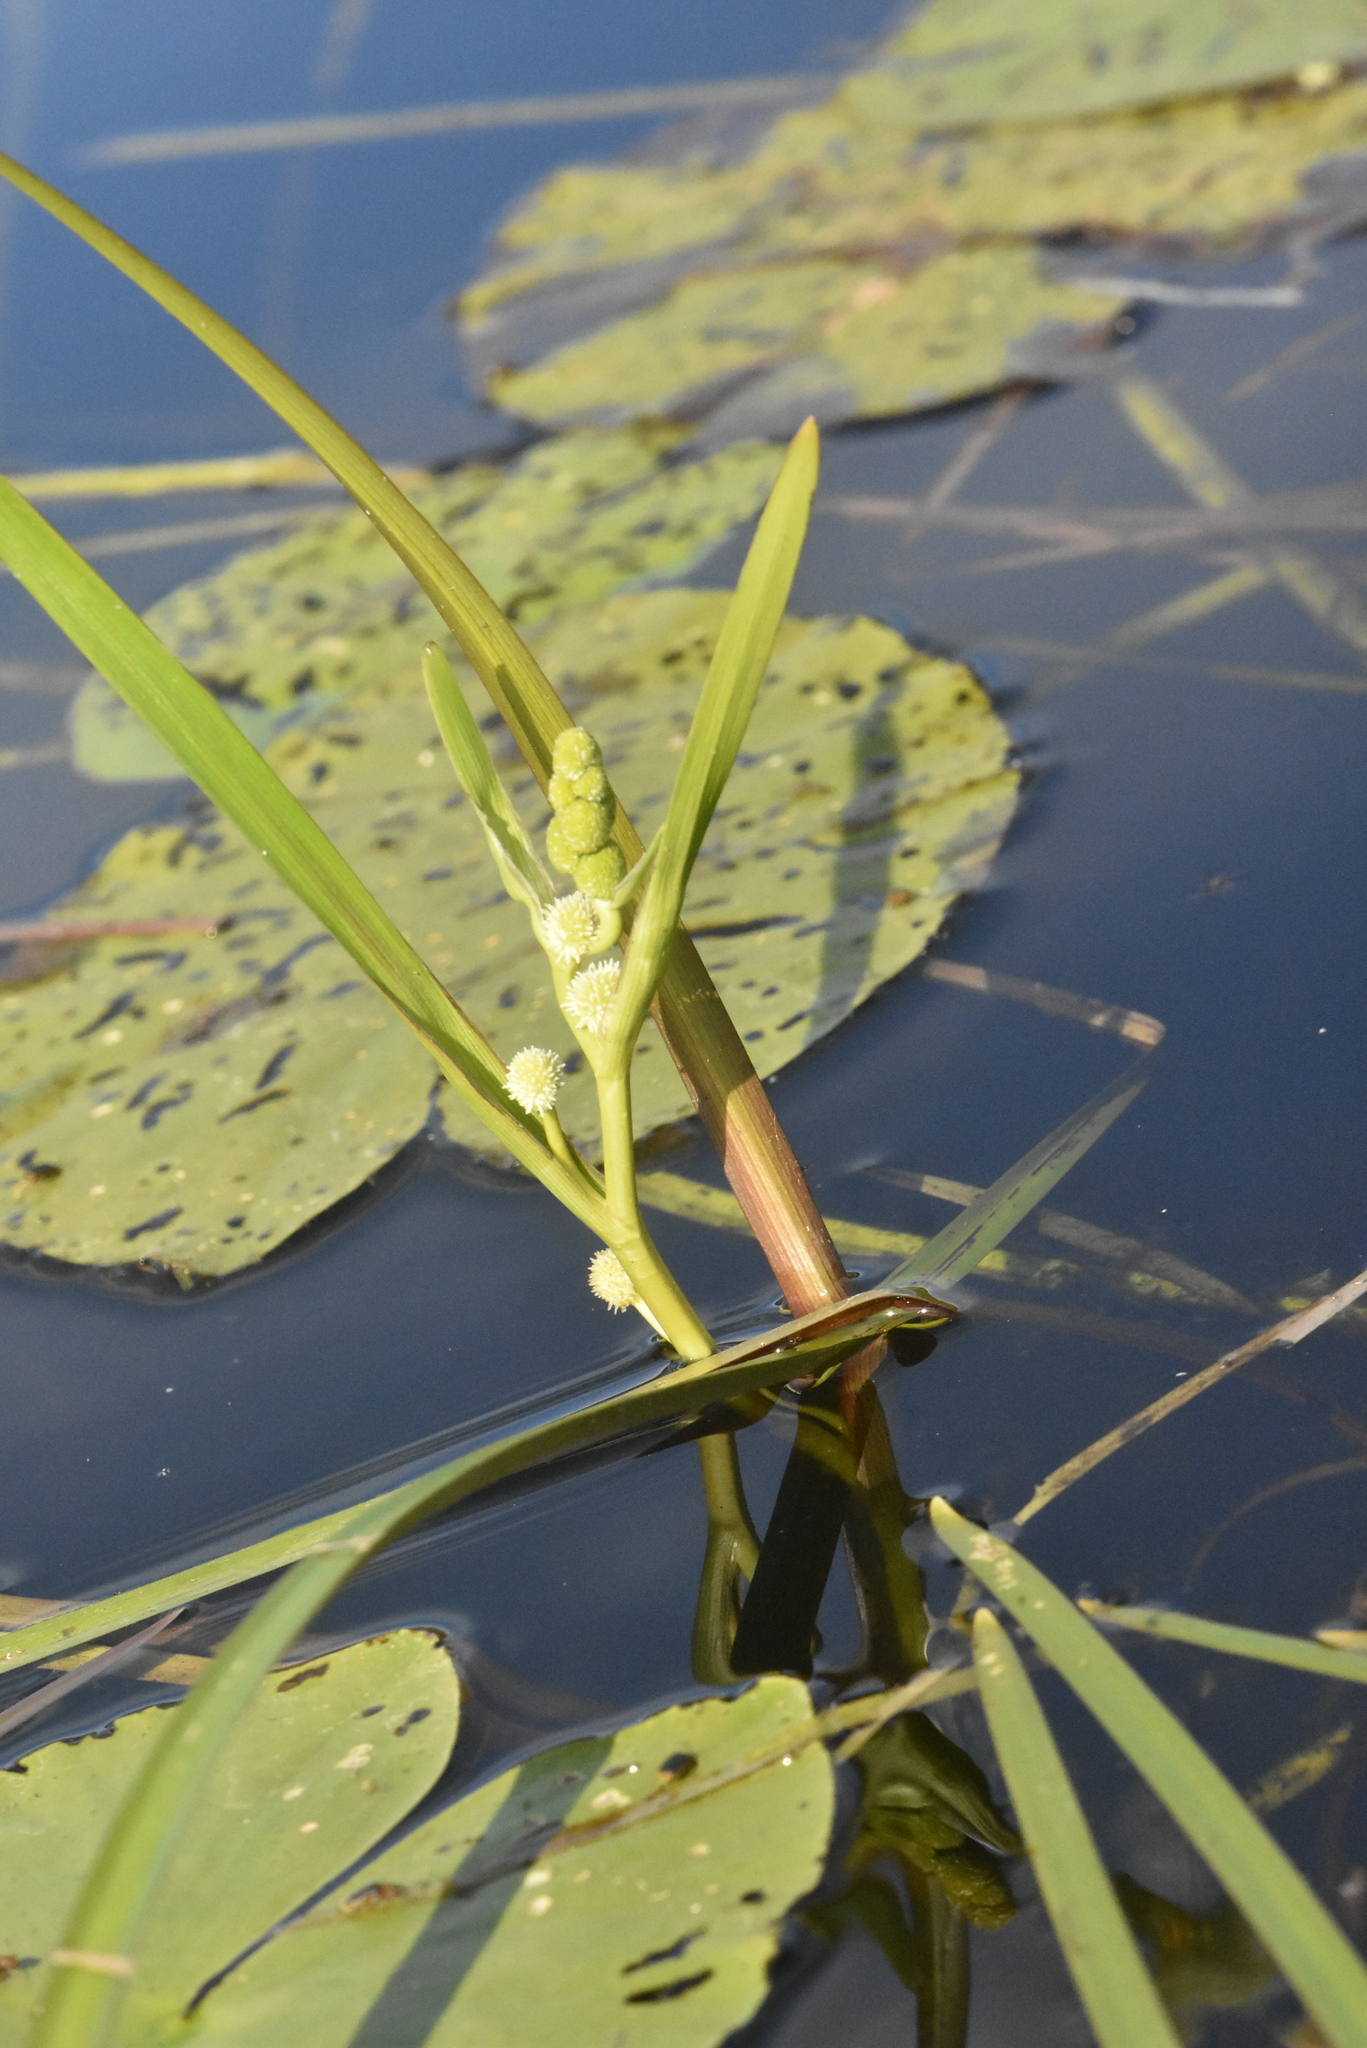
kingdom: Plantae
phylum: Tracheophyta
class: Liliopsida
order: Poales
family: Typhaceae
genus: Sparganium
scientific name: Sparganium emersum
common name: Unbranched bur-reed
